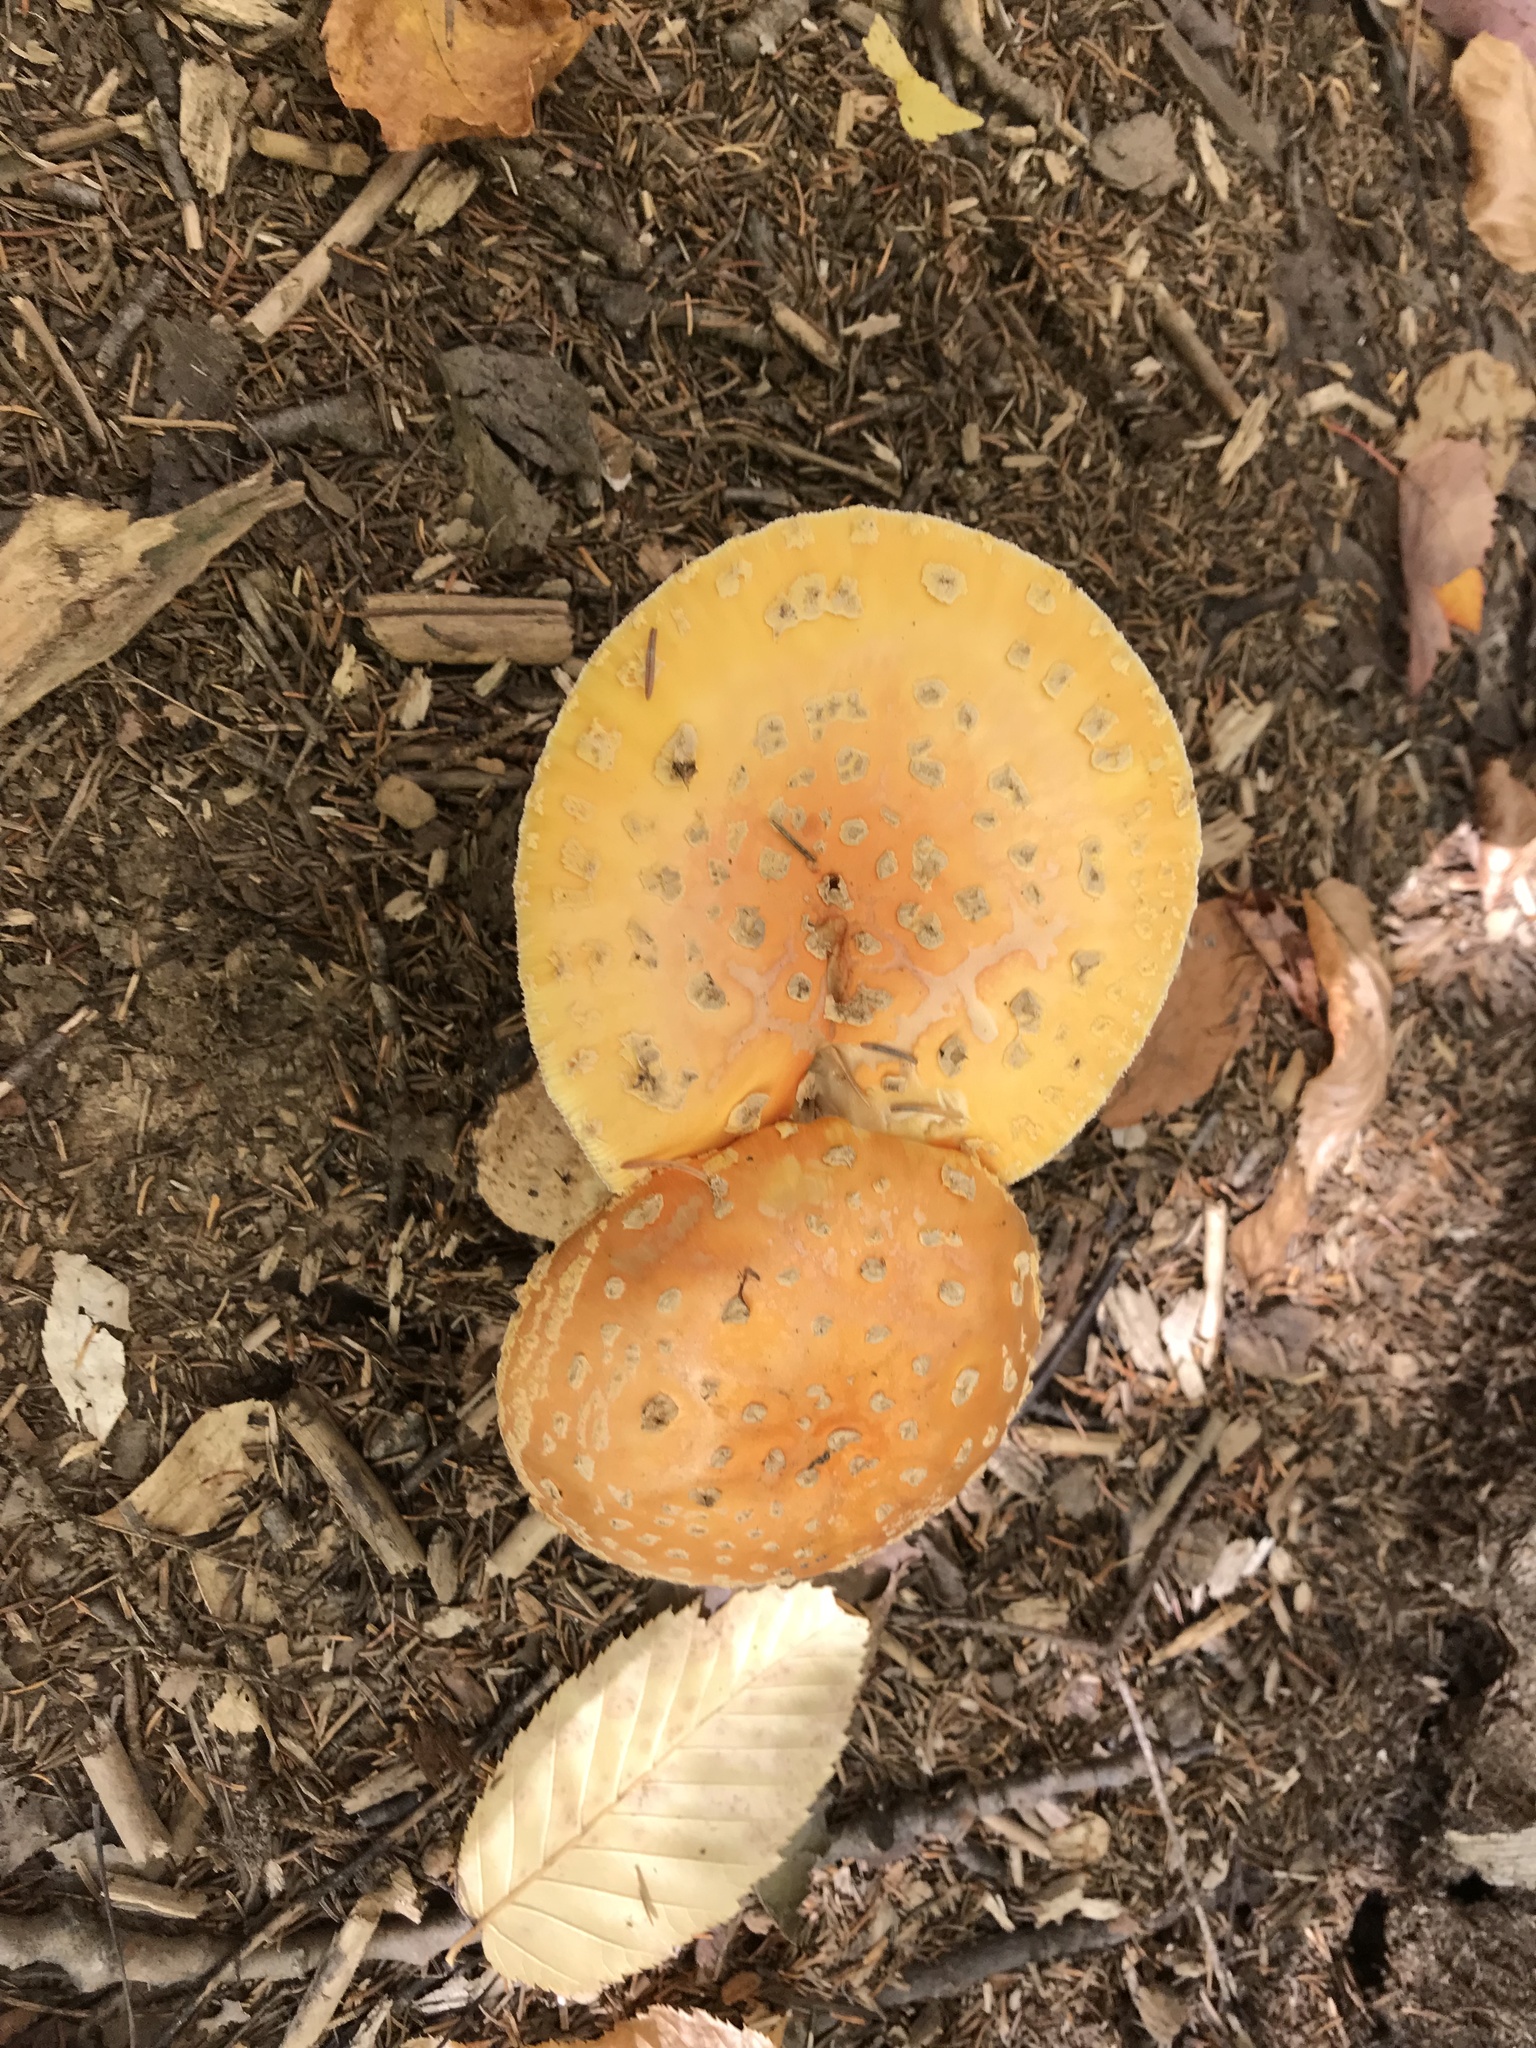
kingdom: Fungi
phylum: Basidiomycota
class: Agaricomycetes
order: Agaricales
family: Amanitaceae
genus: Amanita
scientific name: Amanita muscaria
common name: Fly agaric
